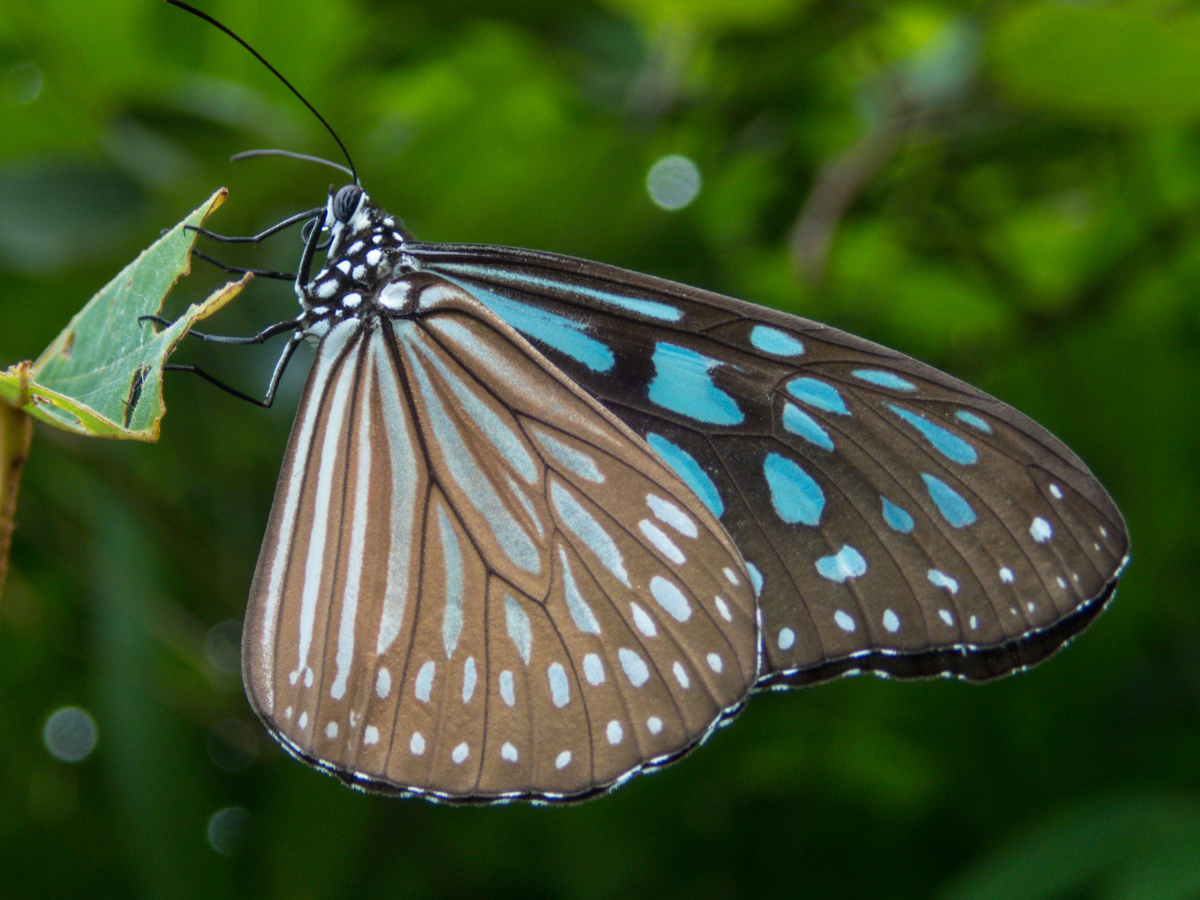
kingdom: Animalia
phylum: Arthropoda
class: Insecta
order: Lepidoptera
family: Nymphalidae
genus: Ideopsis
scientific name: Ideopsis vulgaris
